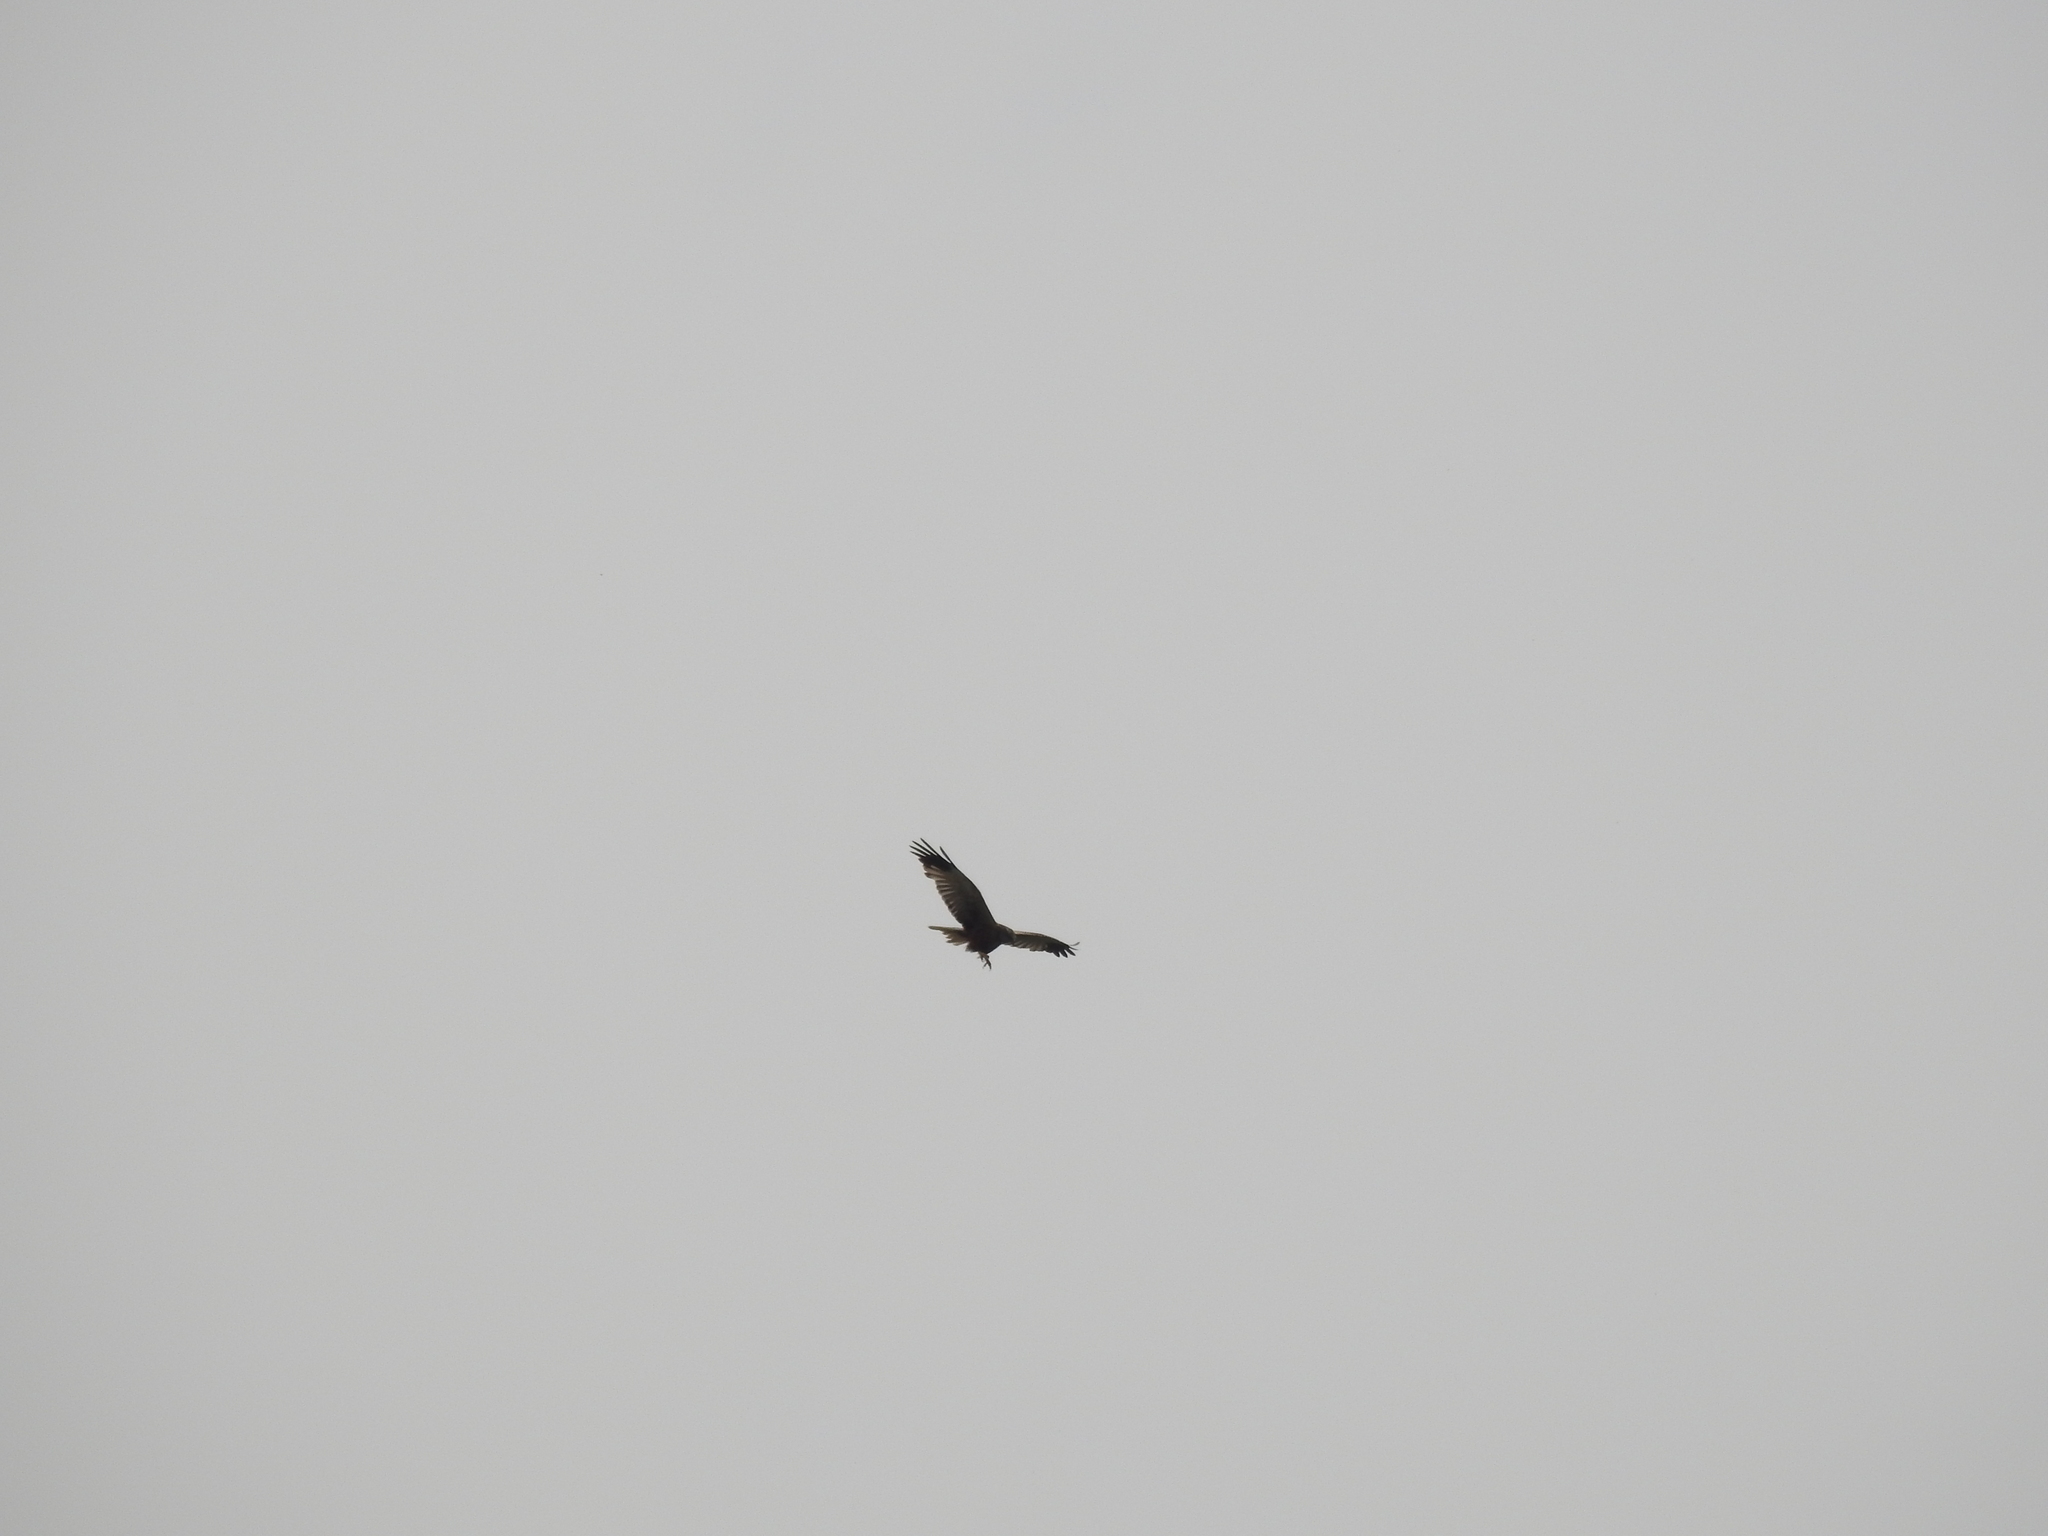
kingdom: Animalia
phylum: Chordata
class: Aves
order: Accipitriformes
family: Accipitridae
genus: Buteo
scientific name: Buteo buteo
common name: Common buzzard
